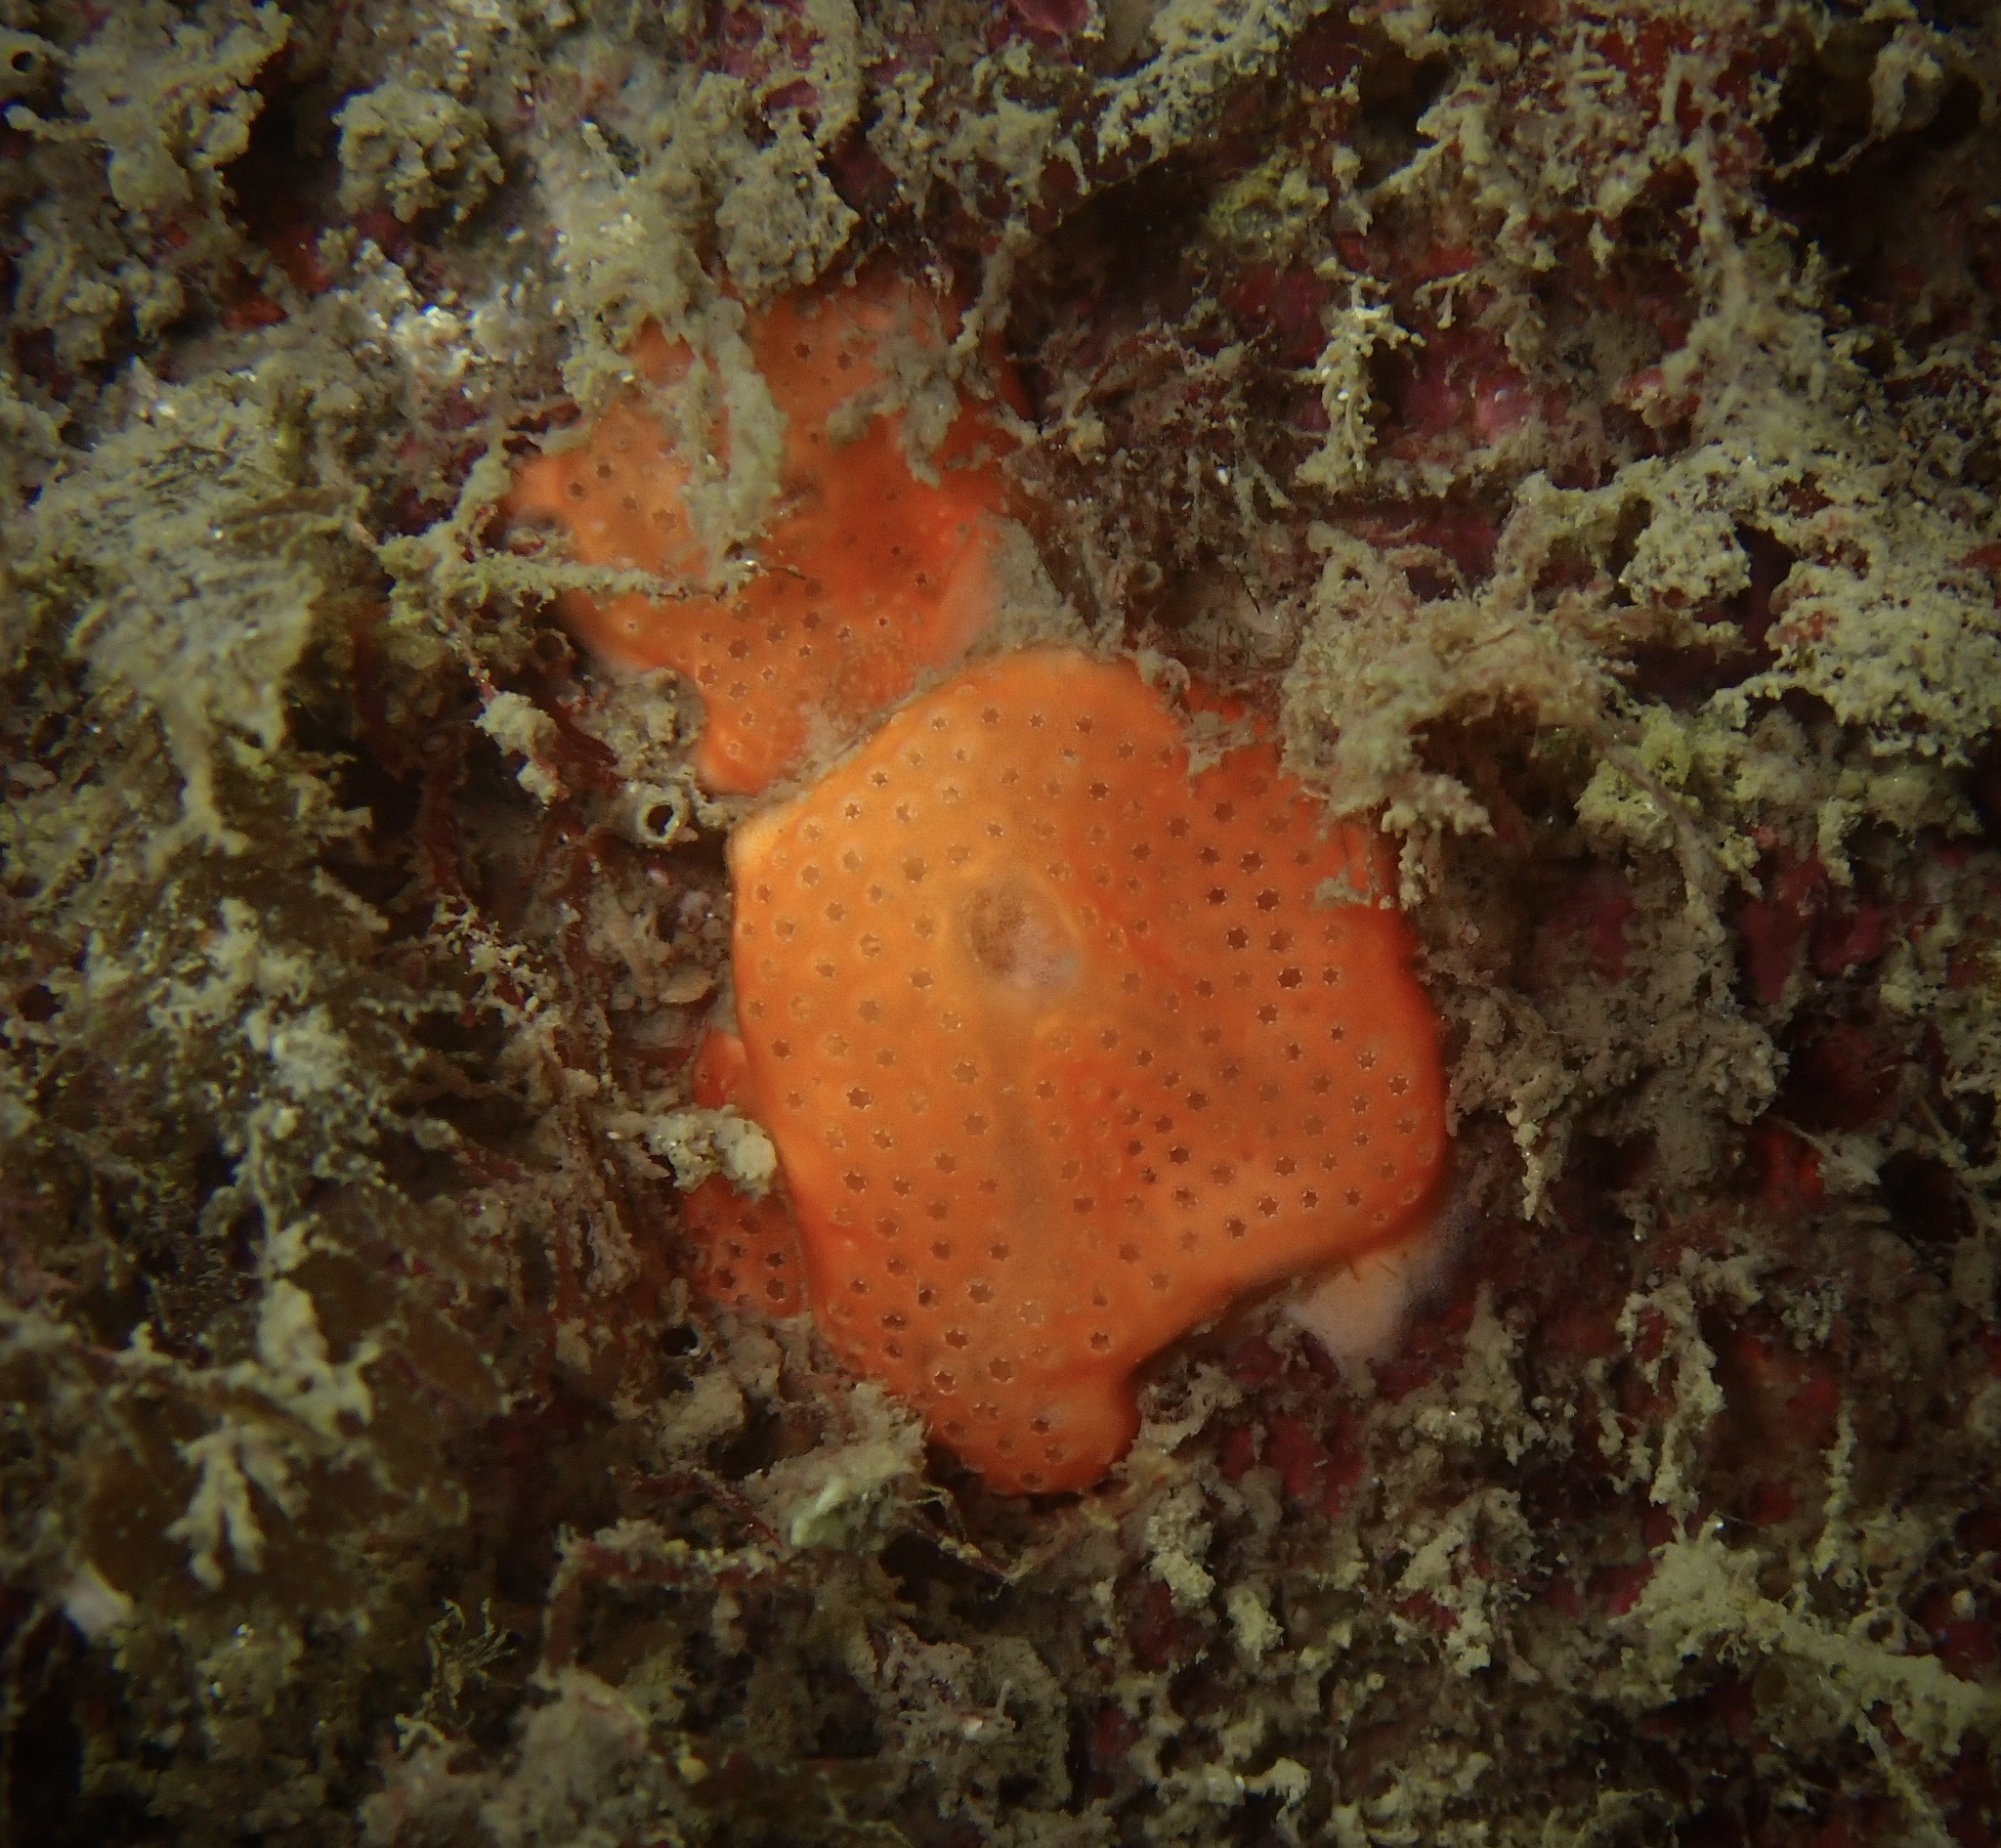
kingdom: Animalia
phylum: Chordata
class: Ascidiacea
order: Aplousobranchia
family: Didemnidae
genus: Didemnum
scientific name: Didemnum pseudofulgens
